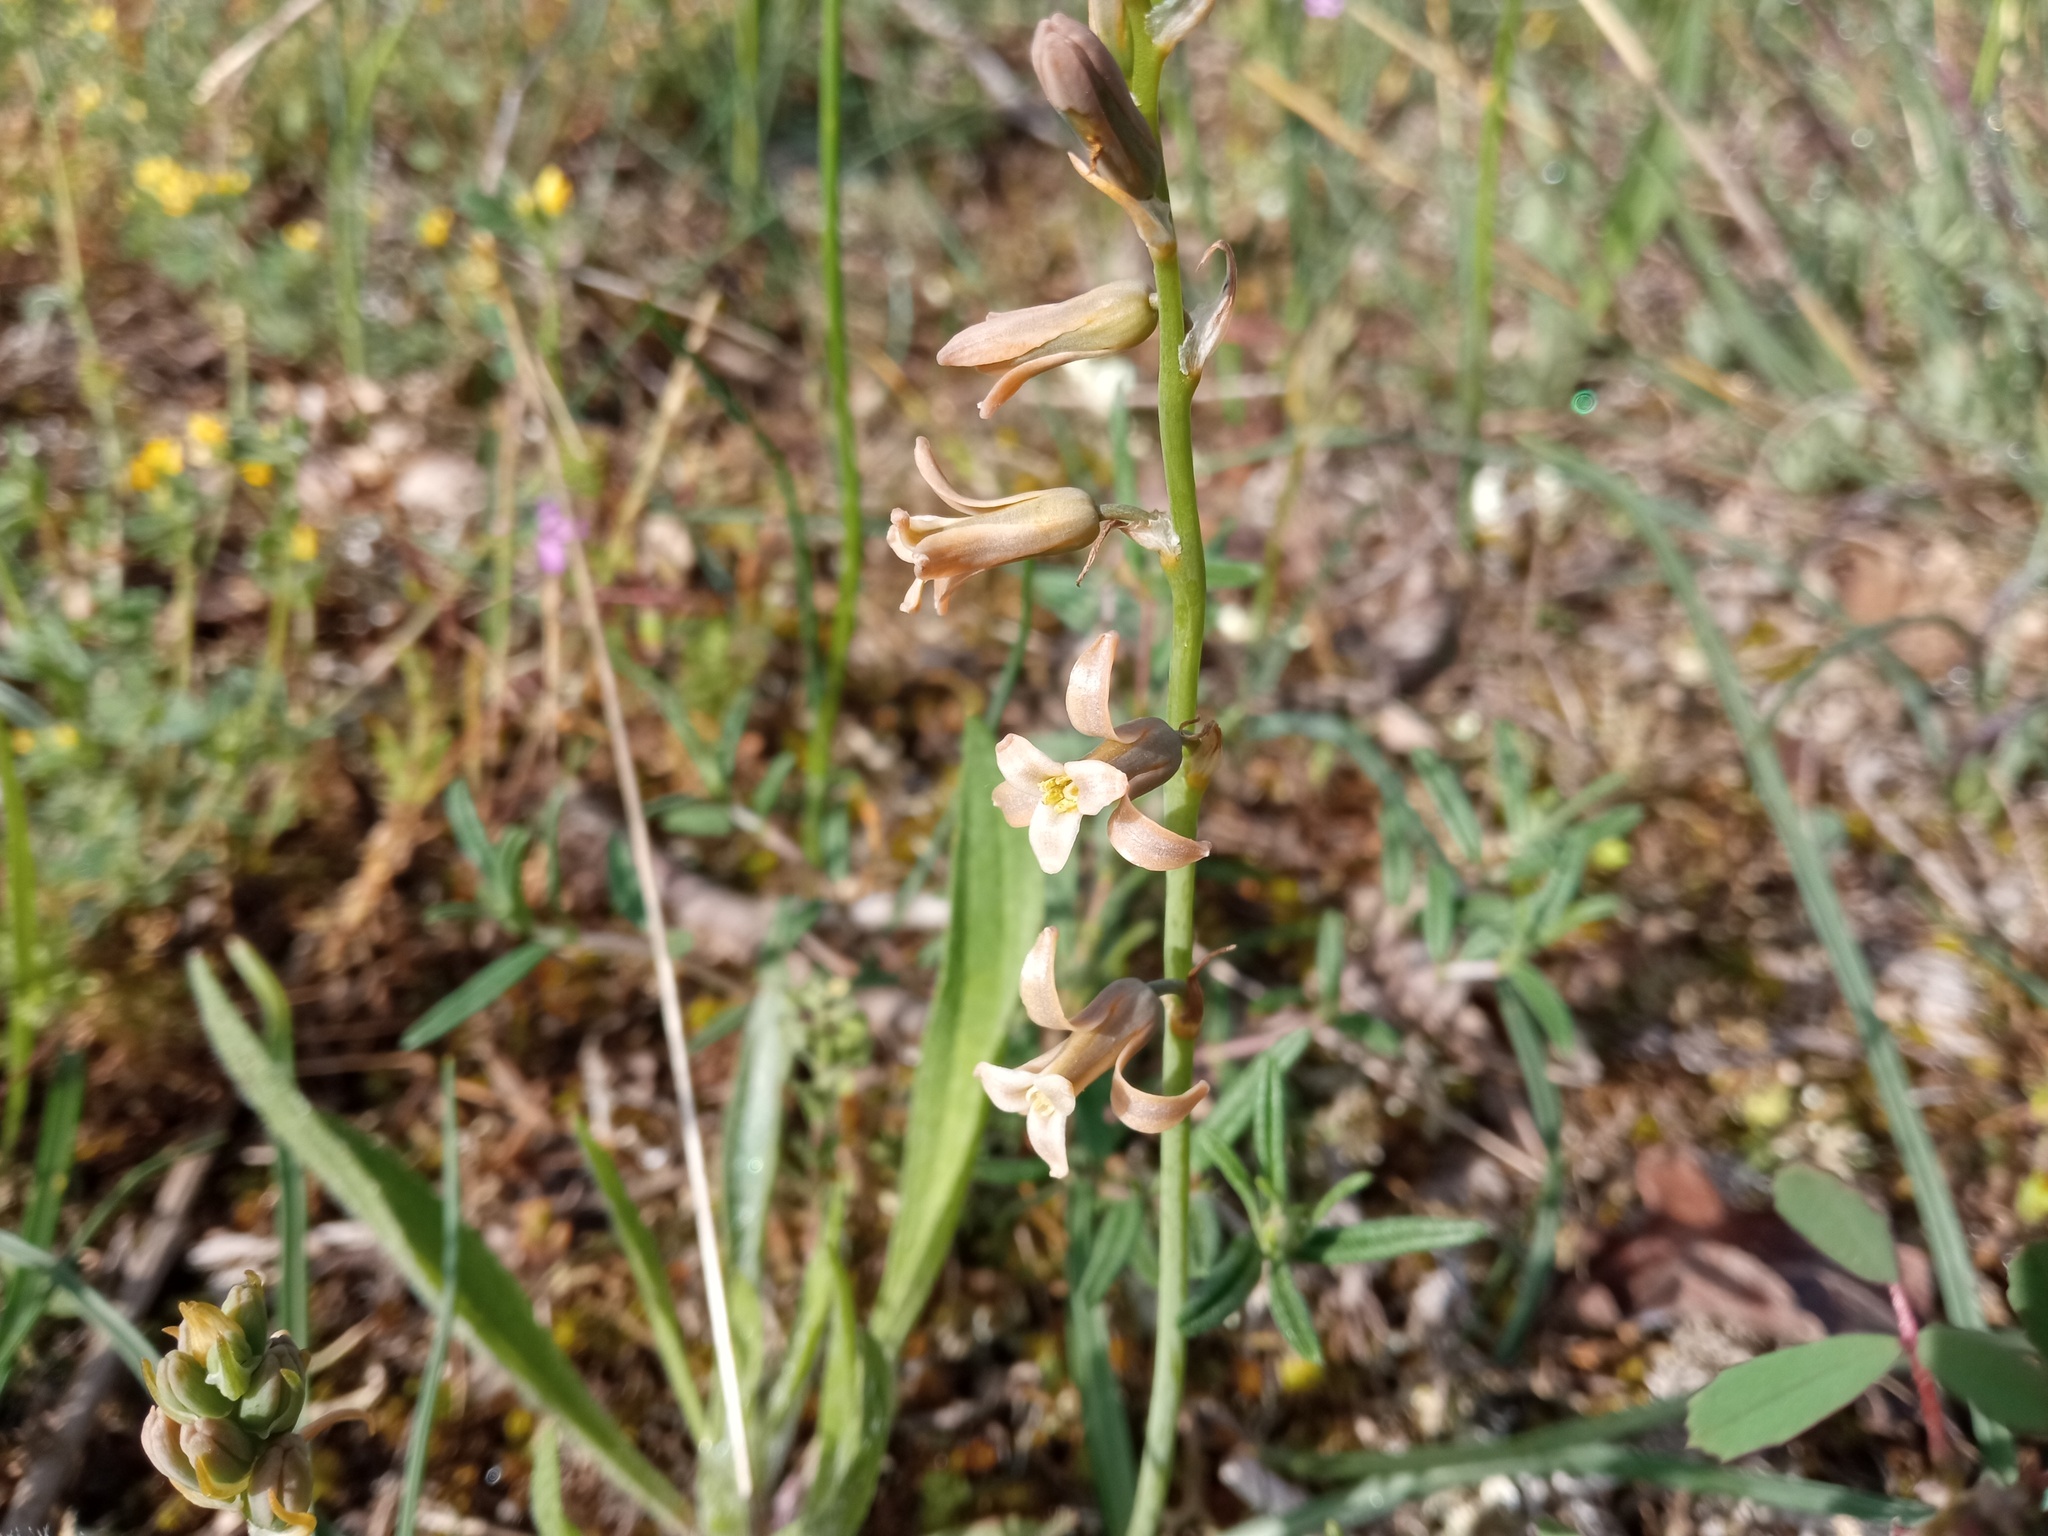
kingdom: Plantae
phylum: Tracheophyta
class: Liliopsida
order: Asparagales
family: Asparagaceae
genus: Dipcadi
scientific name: Dipcadi serotinum
